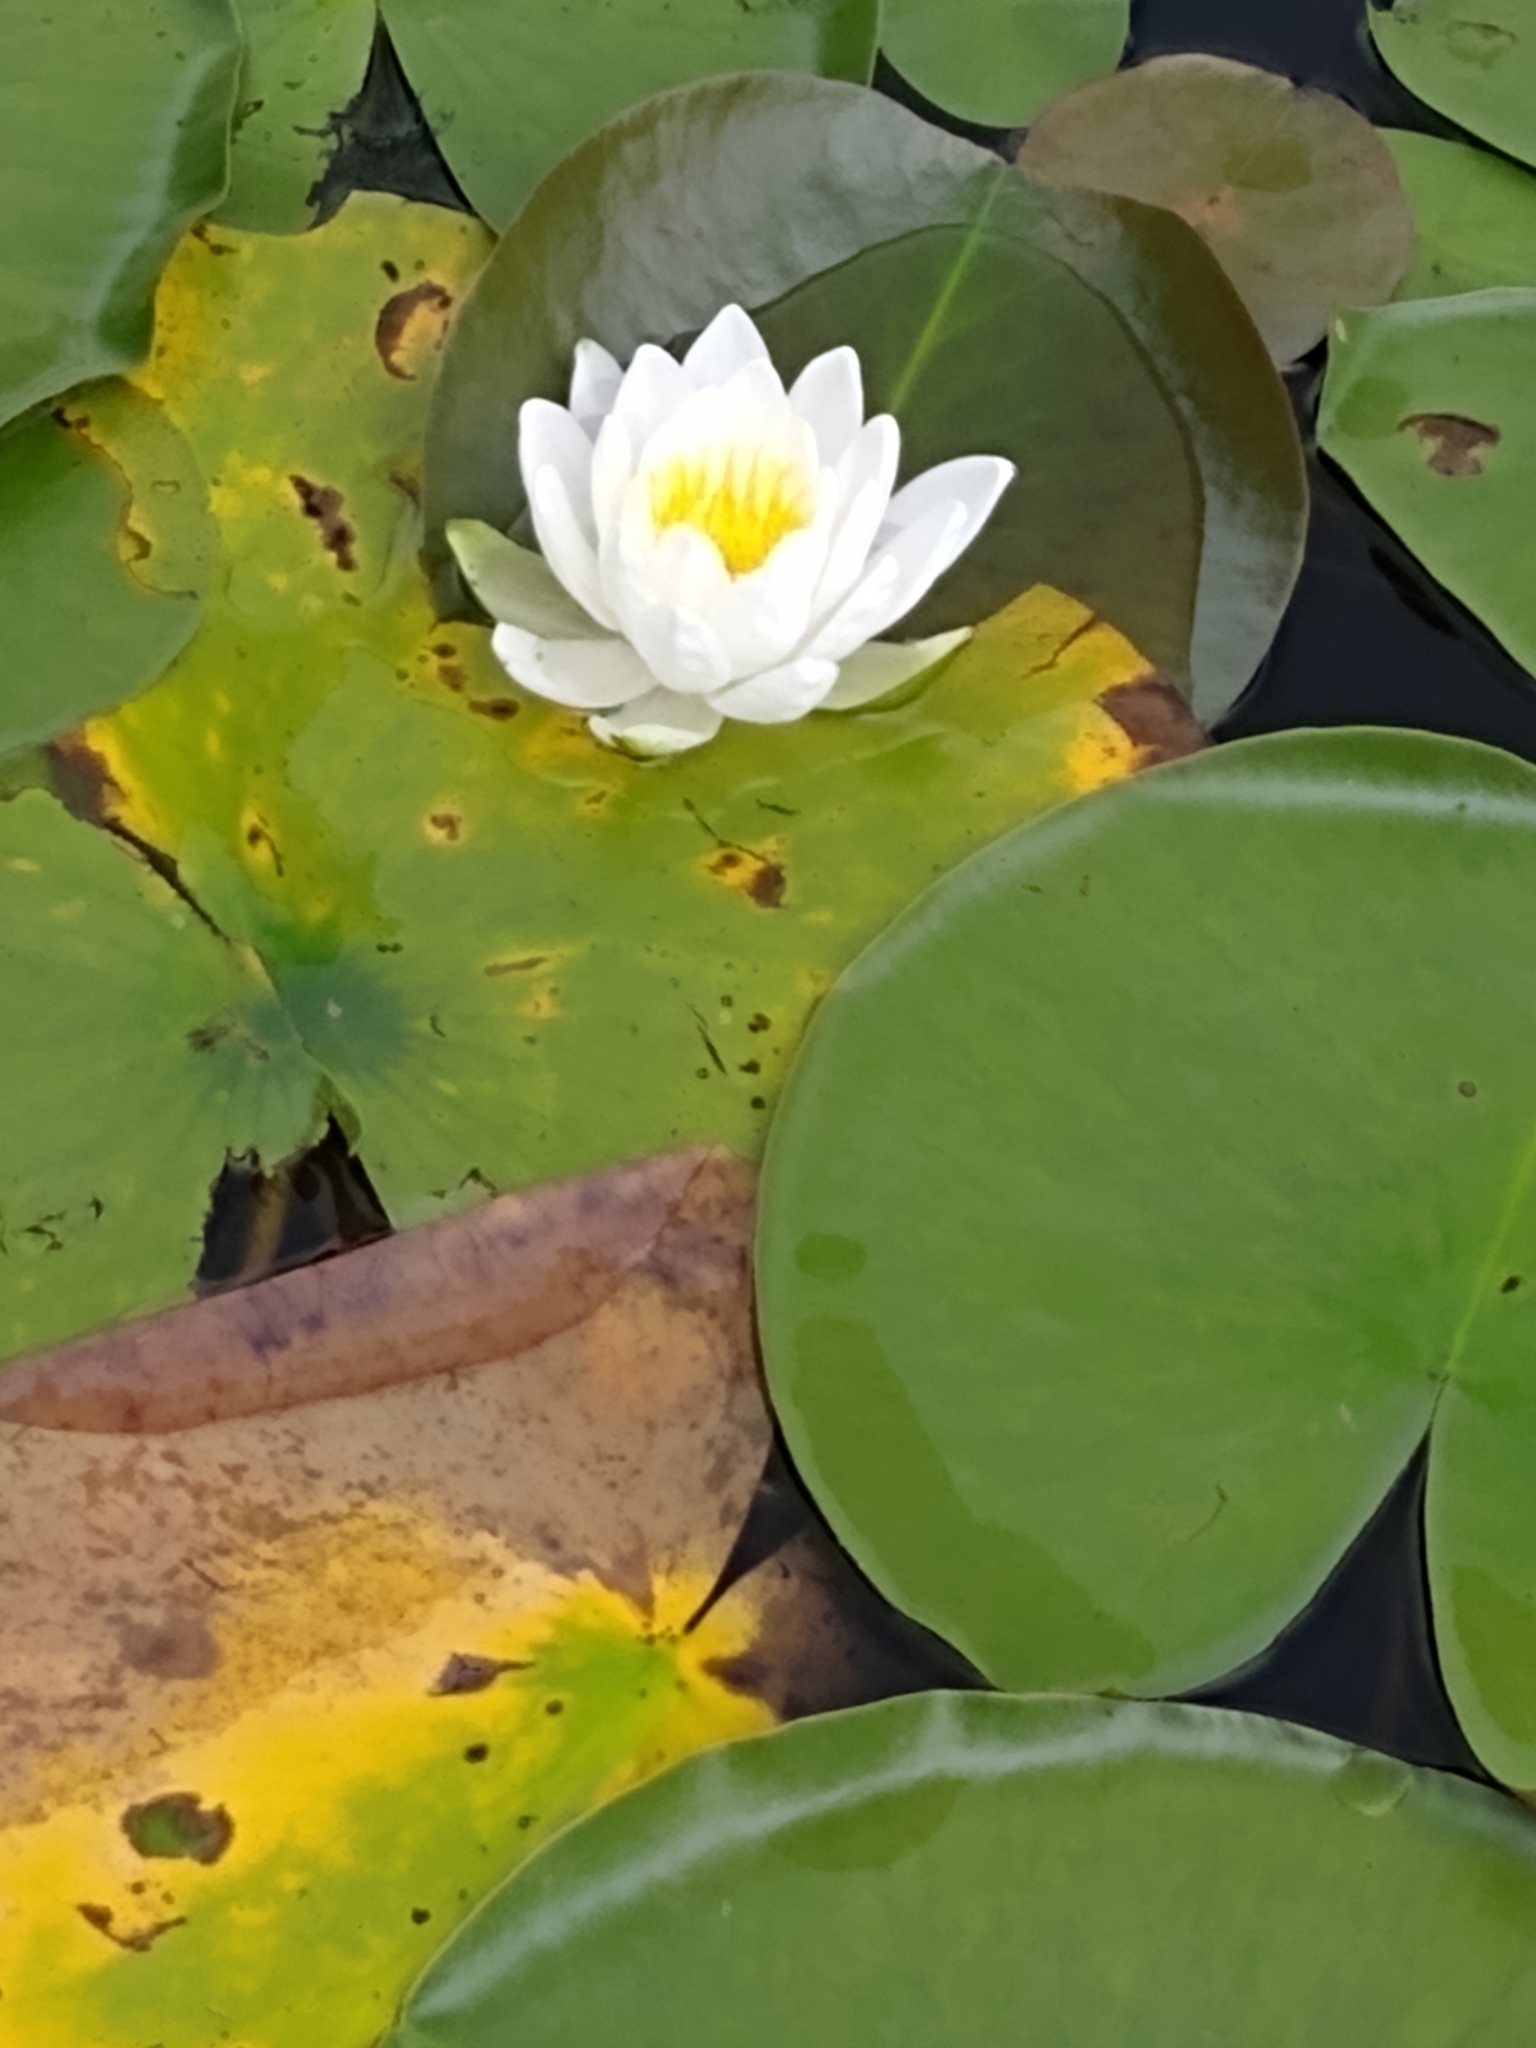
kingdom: Plantae
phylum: Tracheophyta
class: Magnoliopsida
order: Nymphaeales
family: Nymphaeaceae
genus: Nymphaea
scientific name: Nymphaea odorata
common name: Fragrant water-lily
